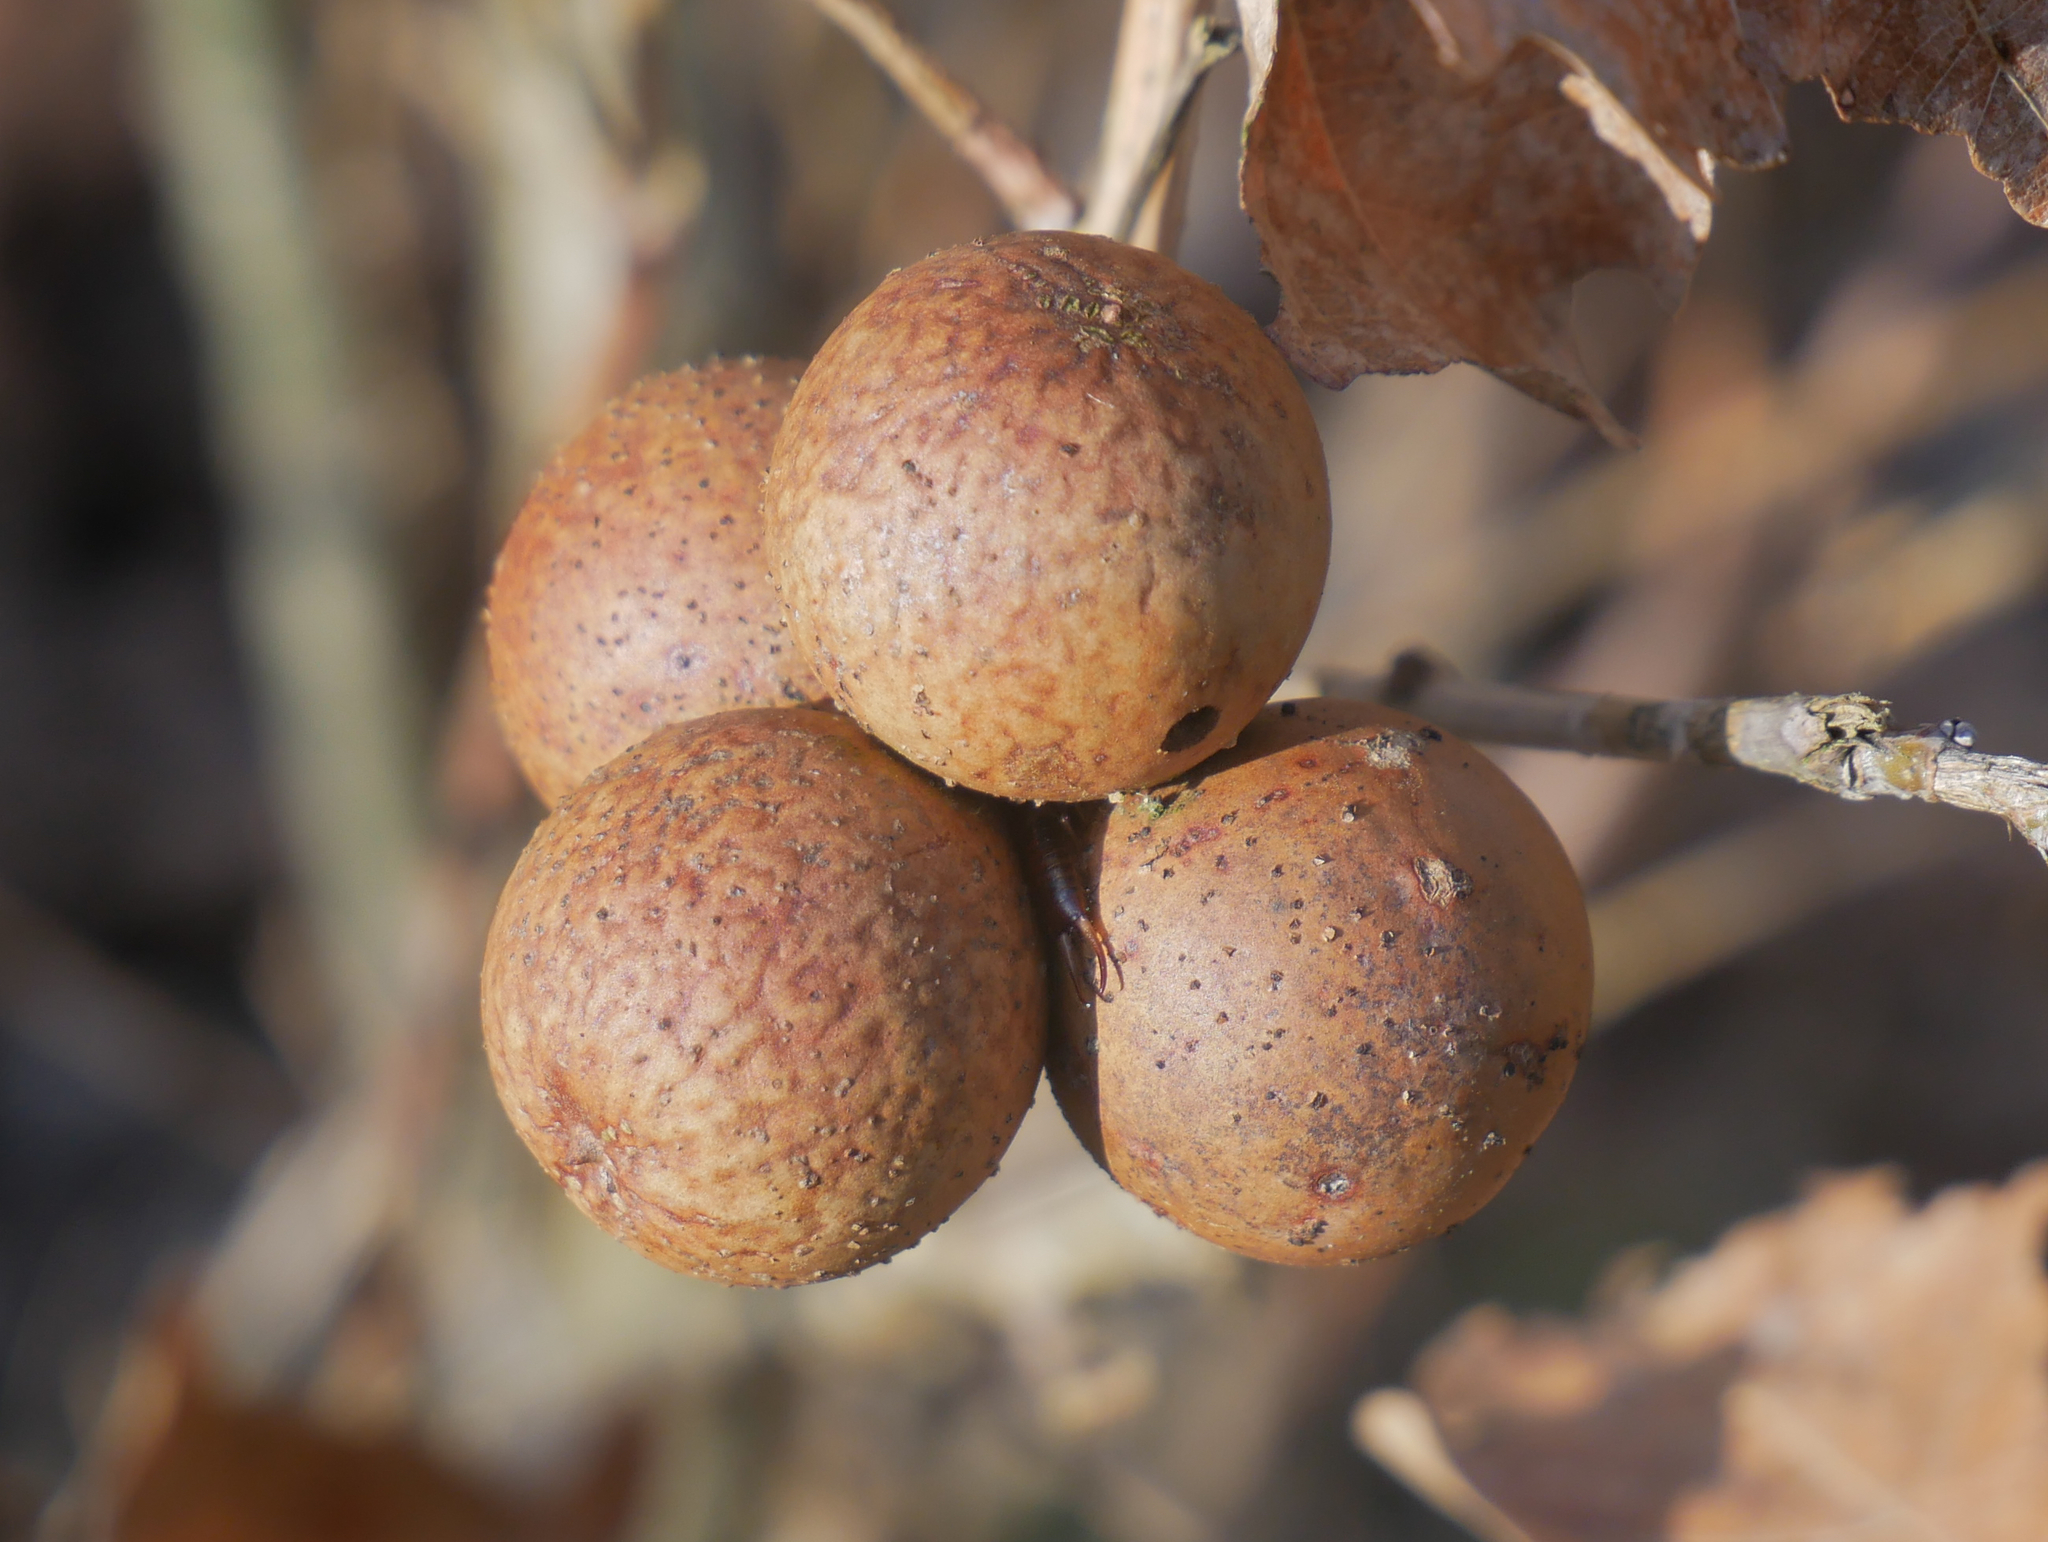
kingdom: Animalia
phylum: Arthropoda
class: Insecta
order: Hymenoptera
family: Cynipidae
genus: Andricus
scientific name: Andricus kollari
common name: Marble gall
